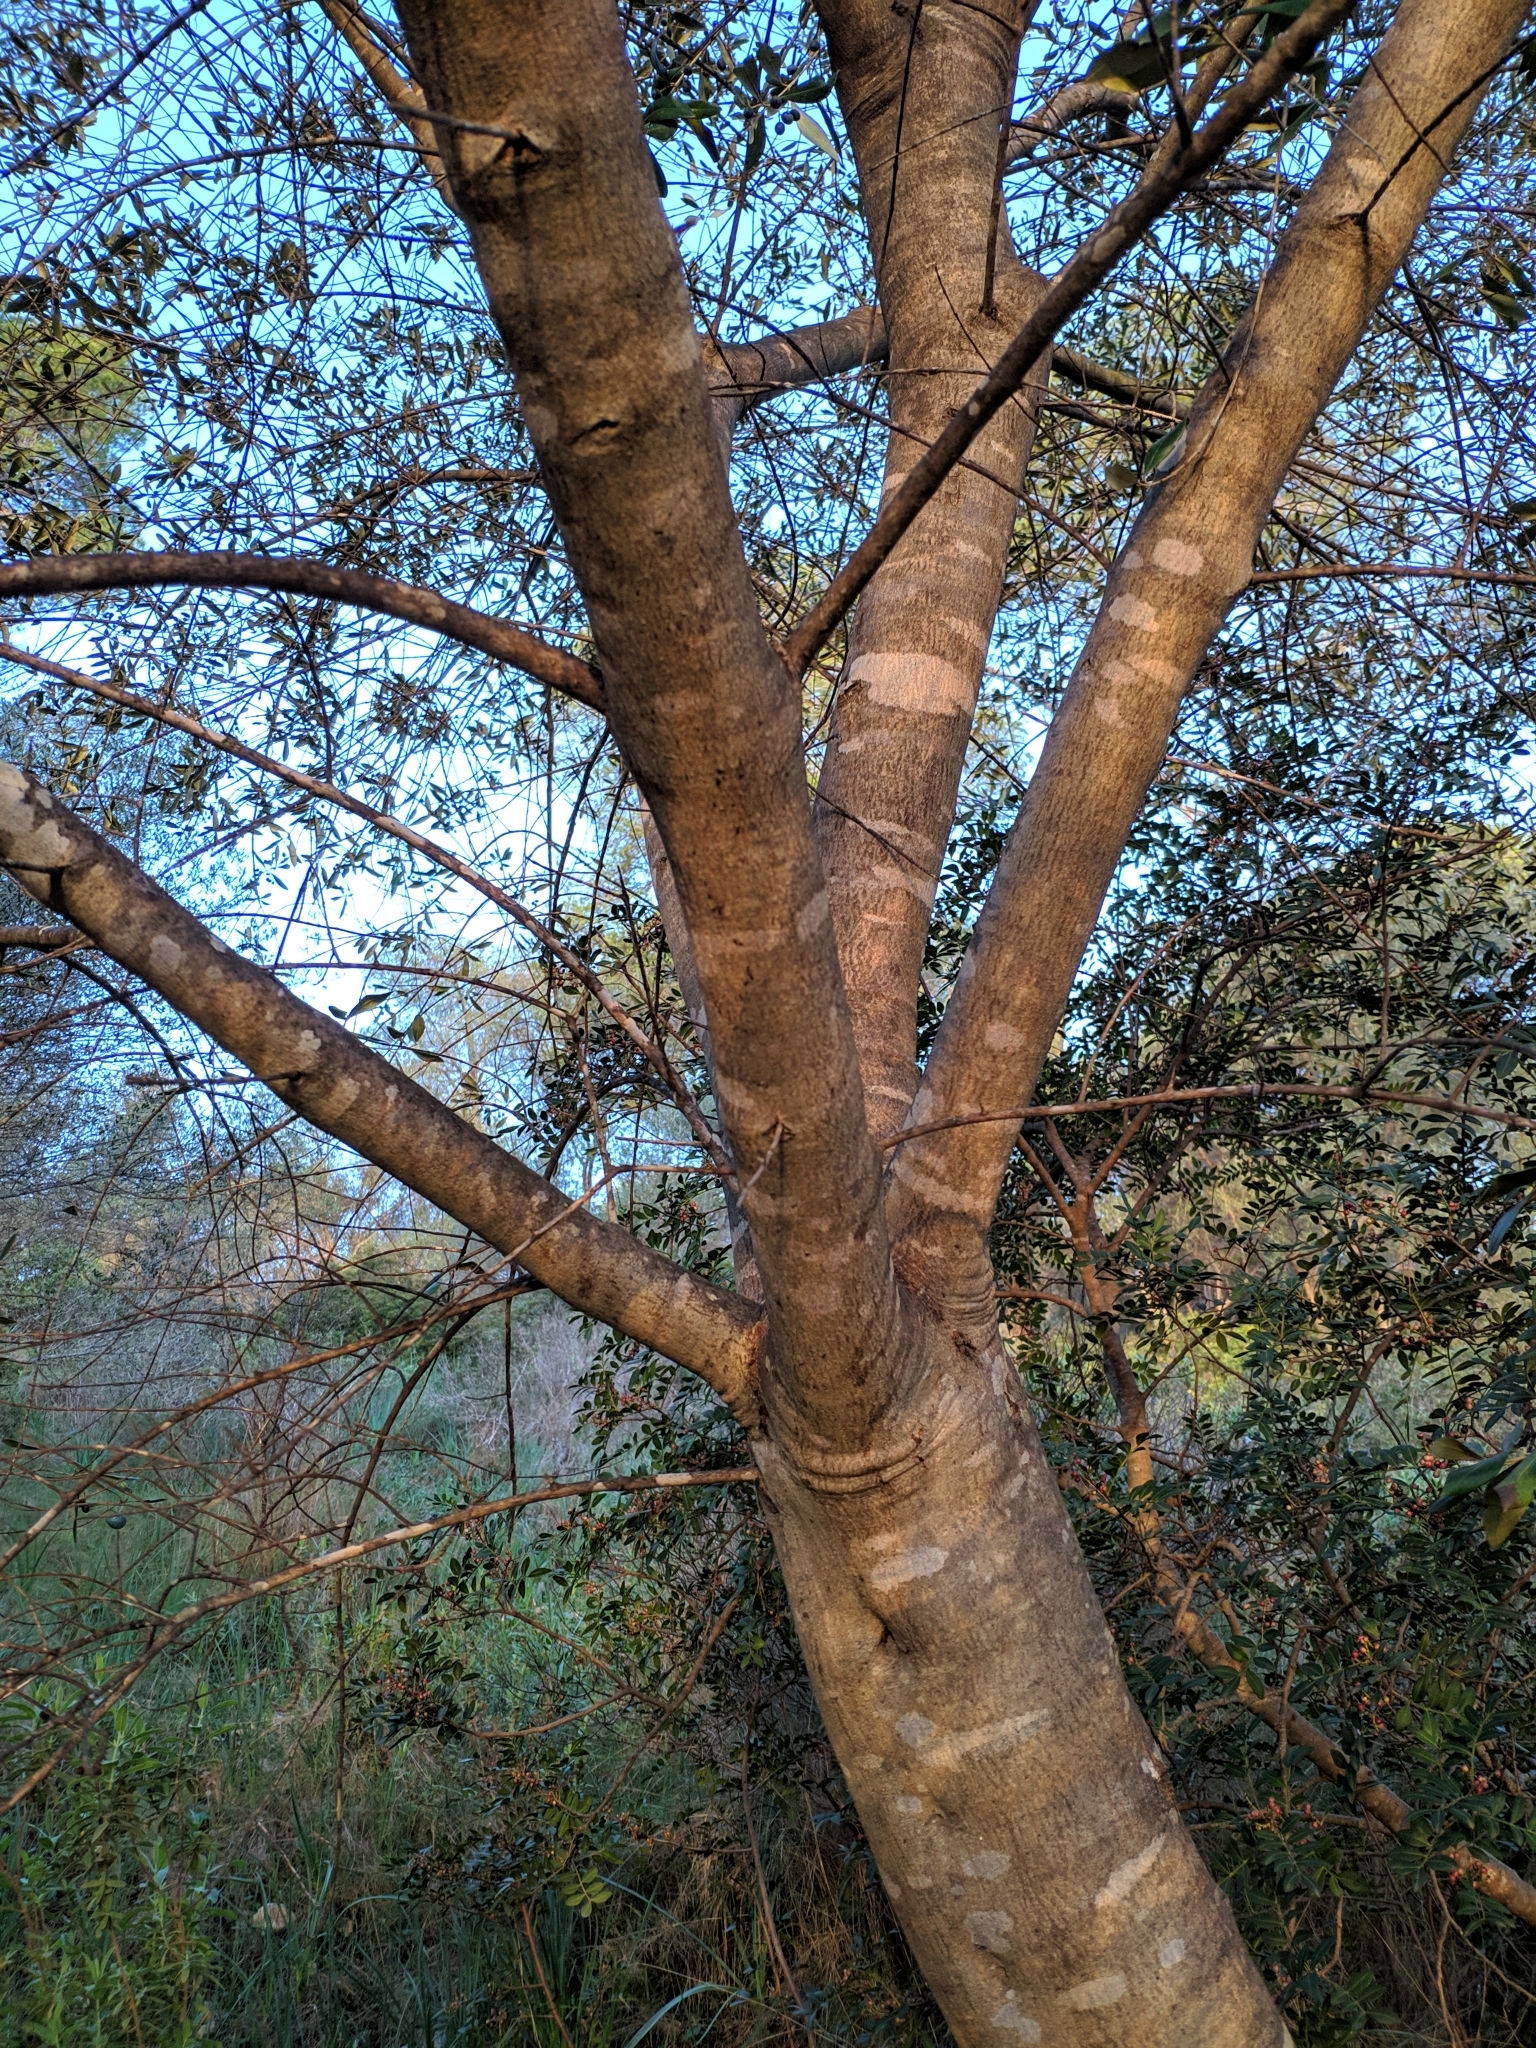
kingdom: Plantae
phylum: Tracheophyta
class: Magnoliopsida
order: Lamiales
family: Oleaceae
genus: Olea
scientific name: Olea europaea
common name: Olive
